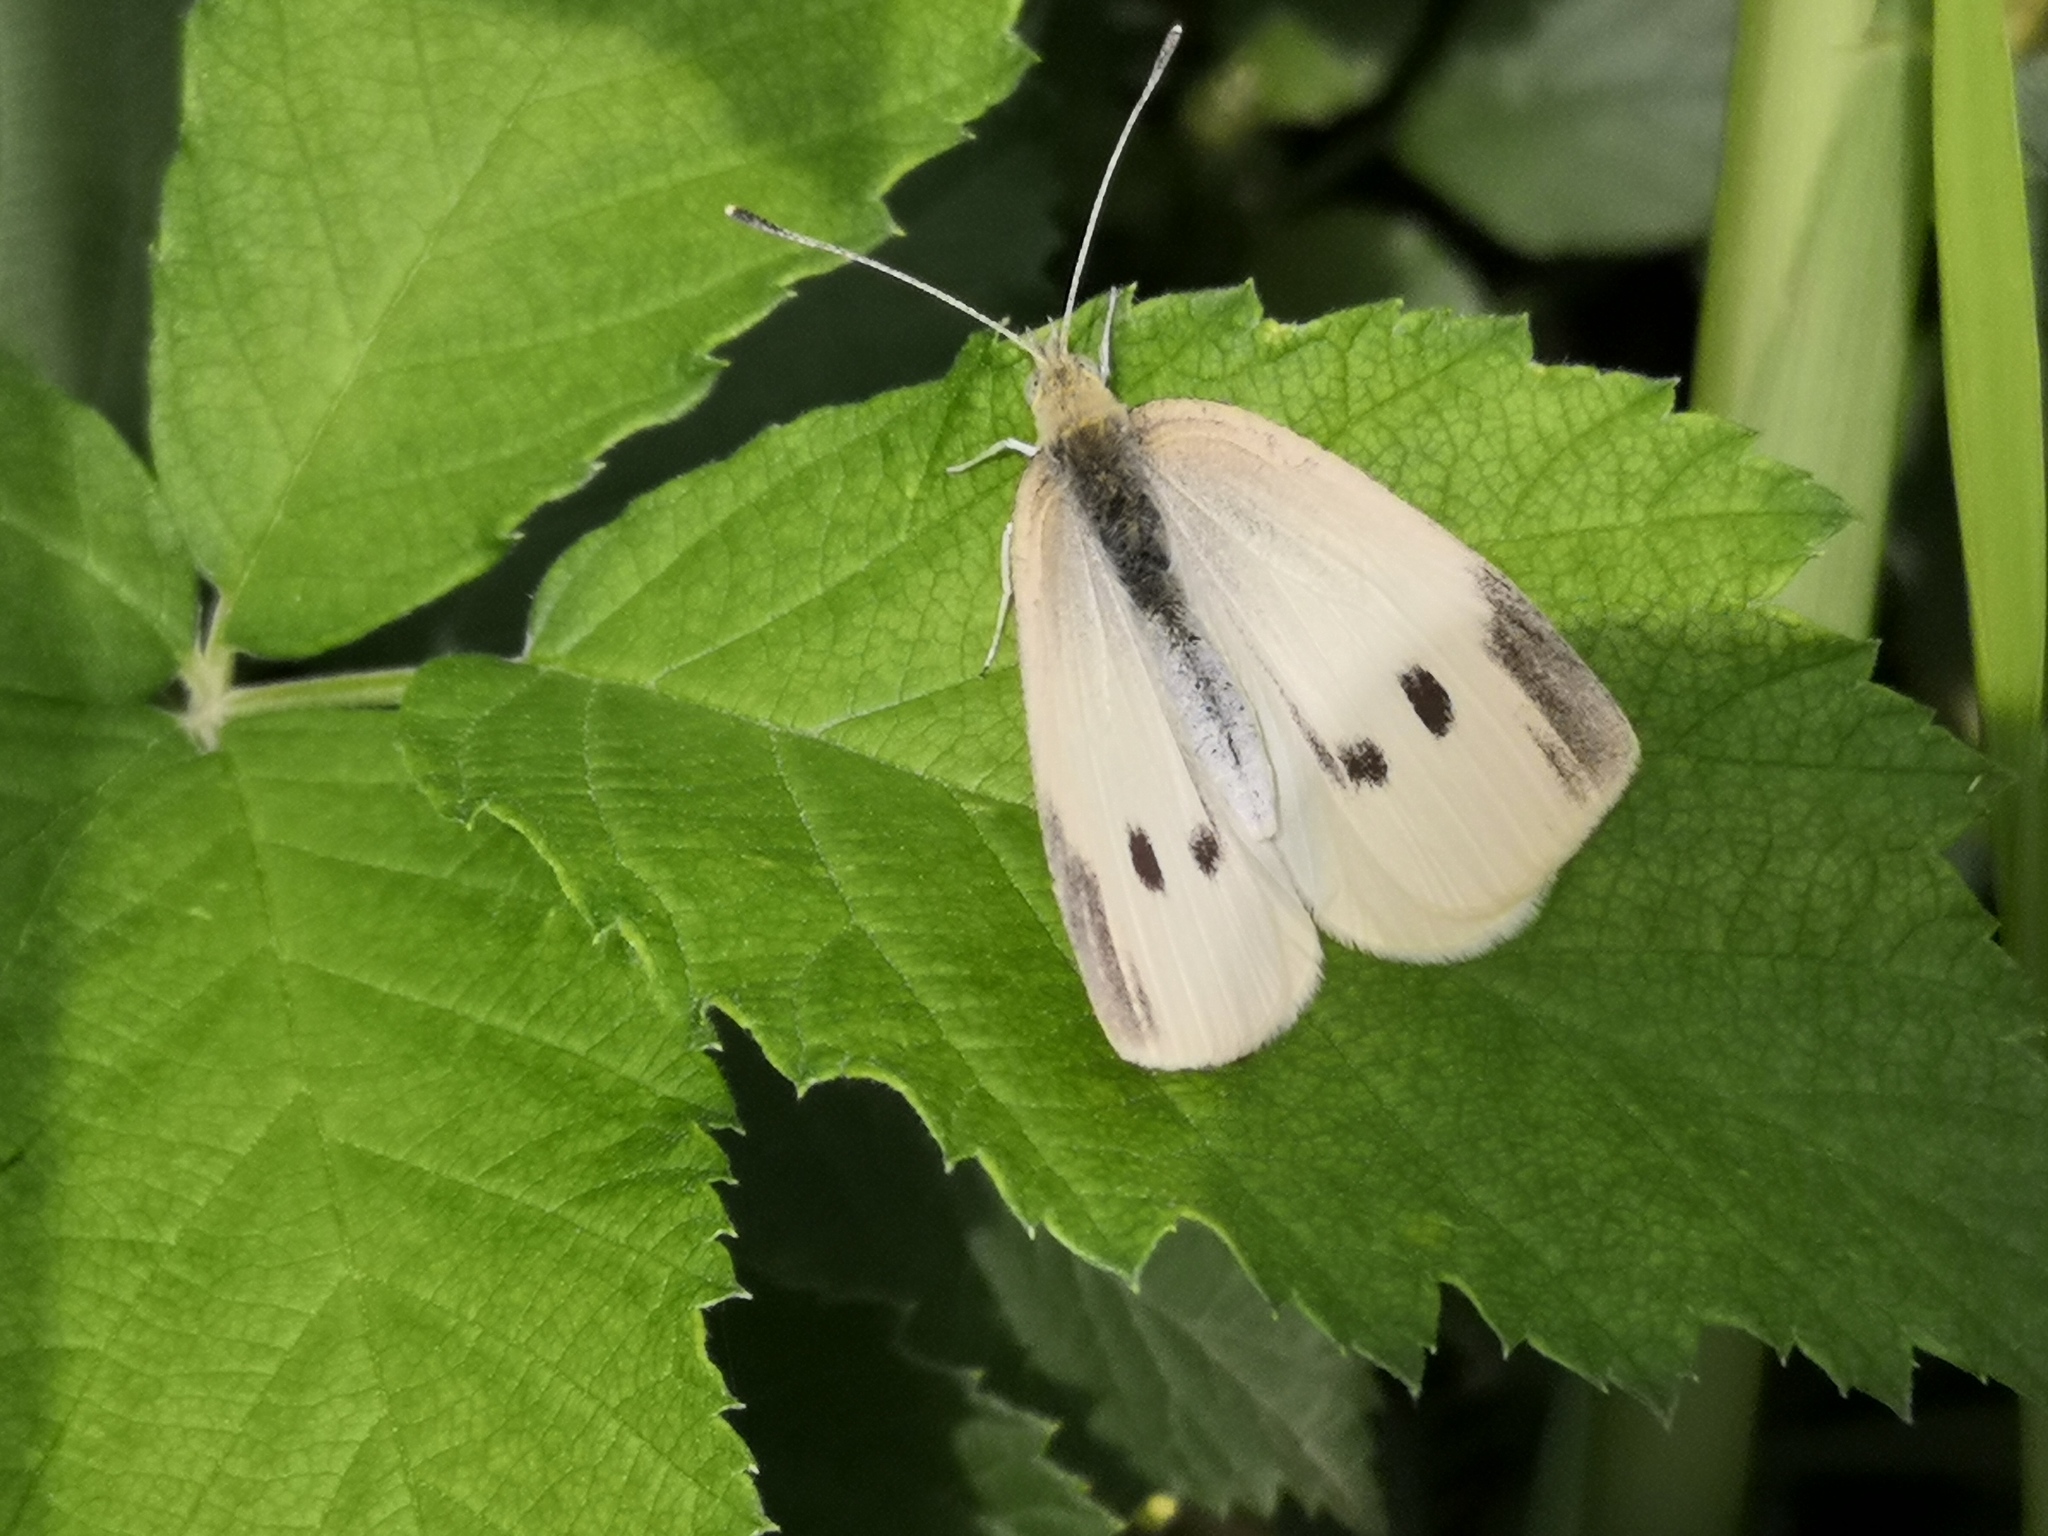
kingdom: Animalia
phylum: Arthropoda
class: Insecta
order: Lepidoptera
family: Pieridae
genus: Pieris
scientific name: Pieris rapae
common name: Small white
